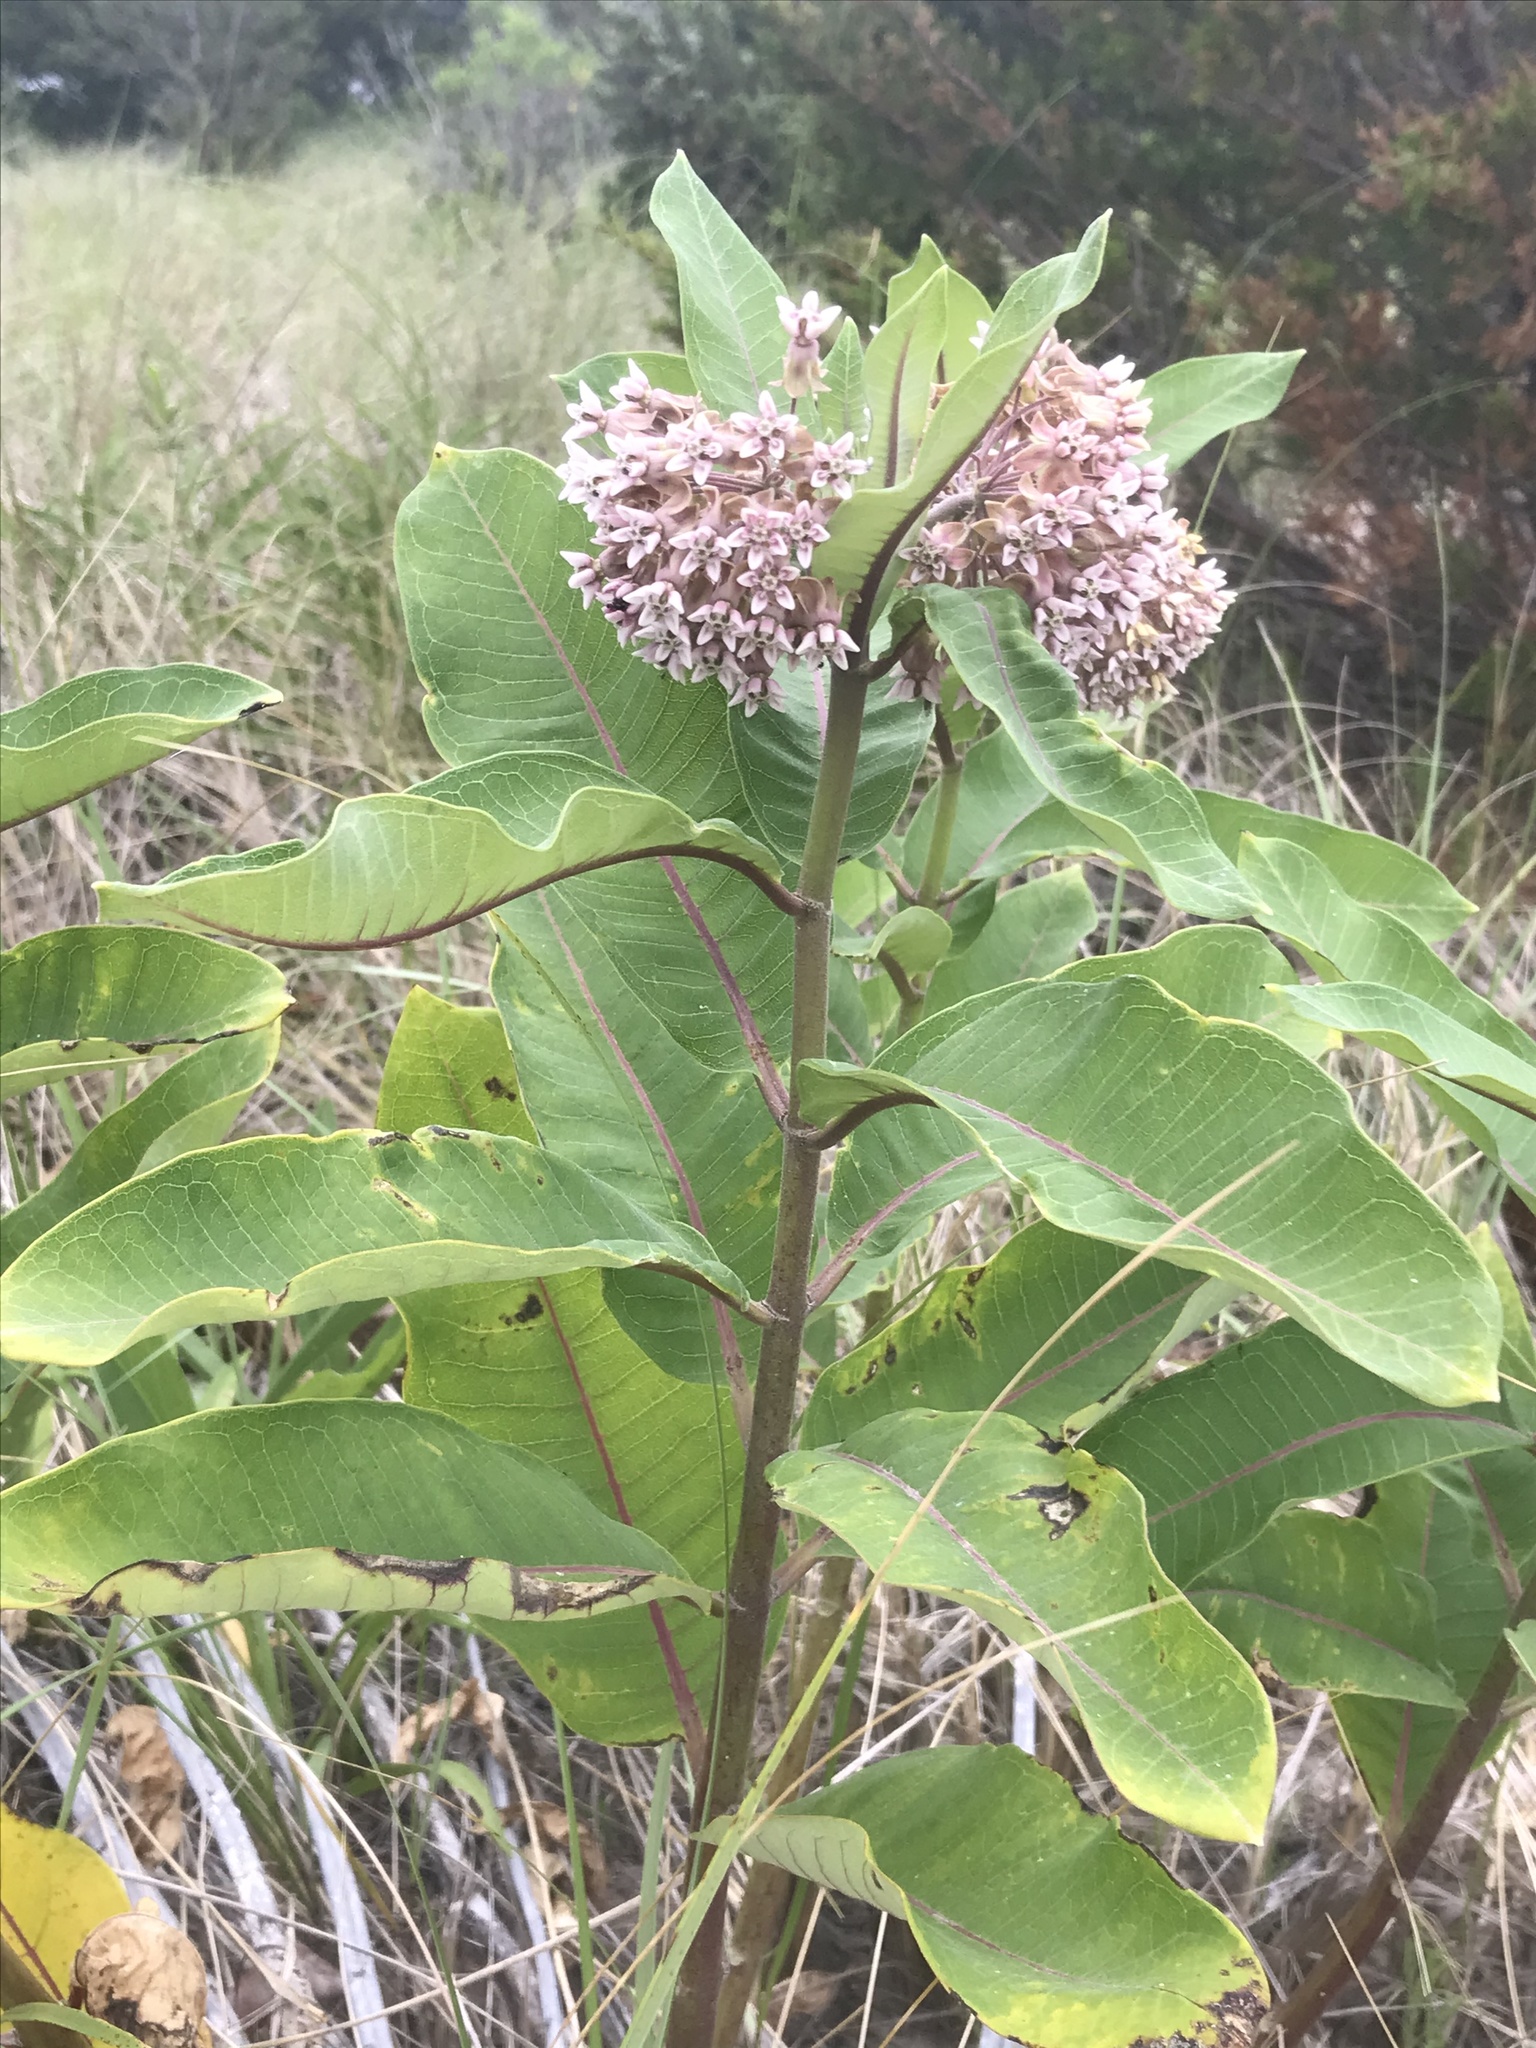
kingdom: Plantae
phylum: Tracheophyta
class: Magnoliopsida
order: Gentianales
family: Apocynaceae
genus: Asclepias
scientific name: Asclepias syriaca
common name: Common milkweed
